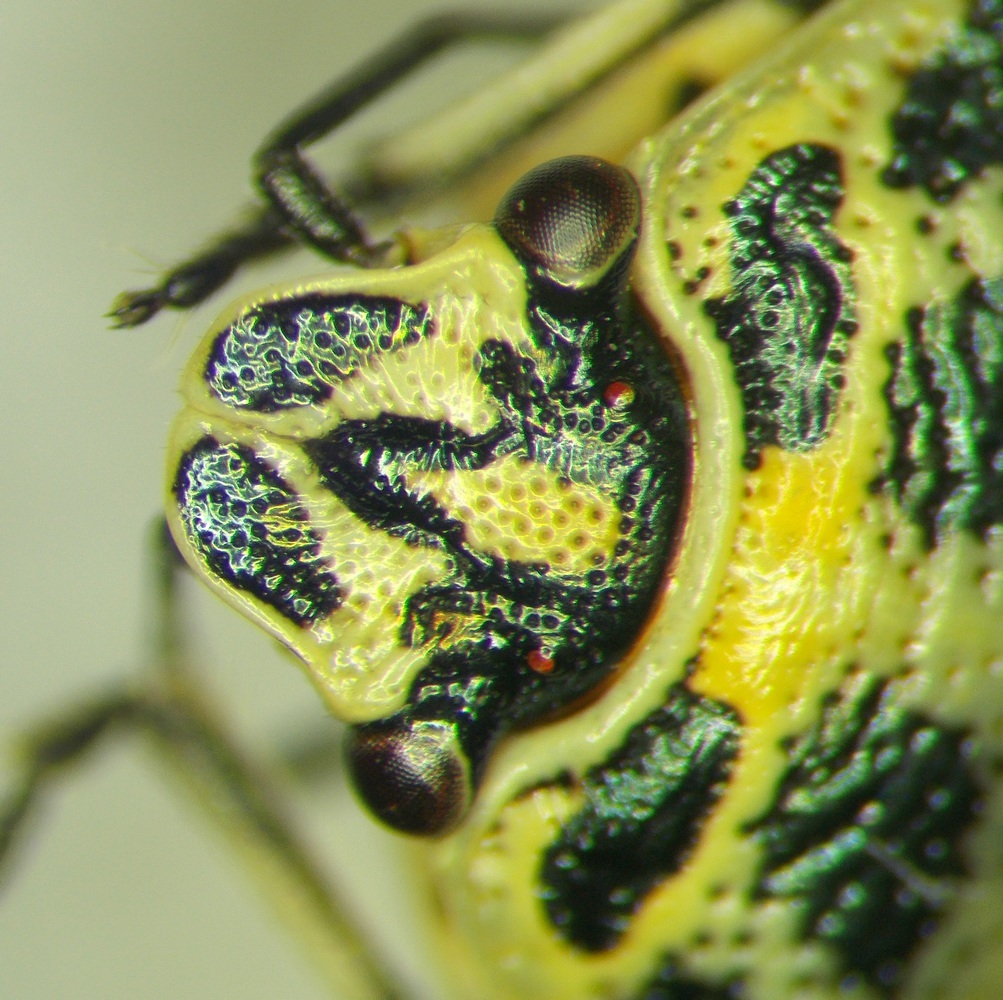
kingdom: Animalia
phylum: Arthropoda
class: Insecta
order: Hemiptera
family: Pentatomidae
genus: Eurydema
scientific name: Eurydema ornata
